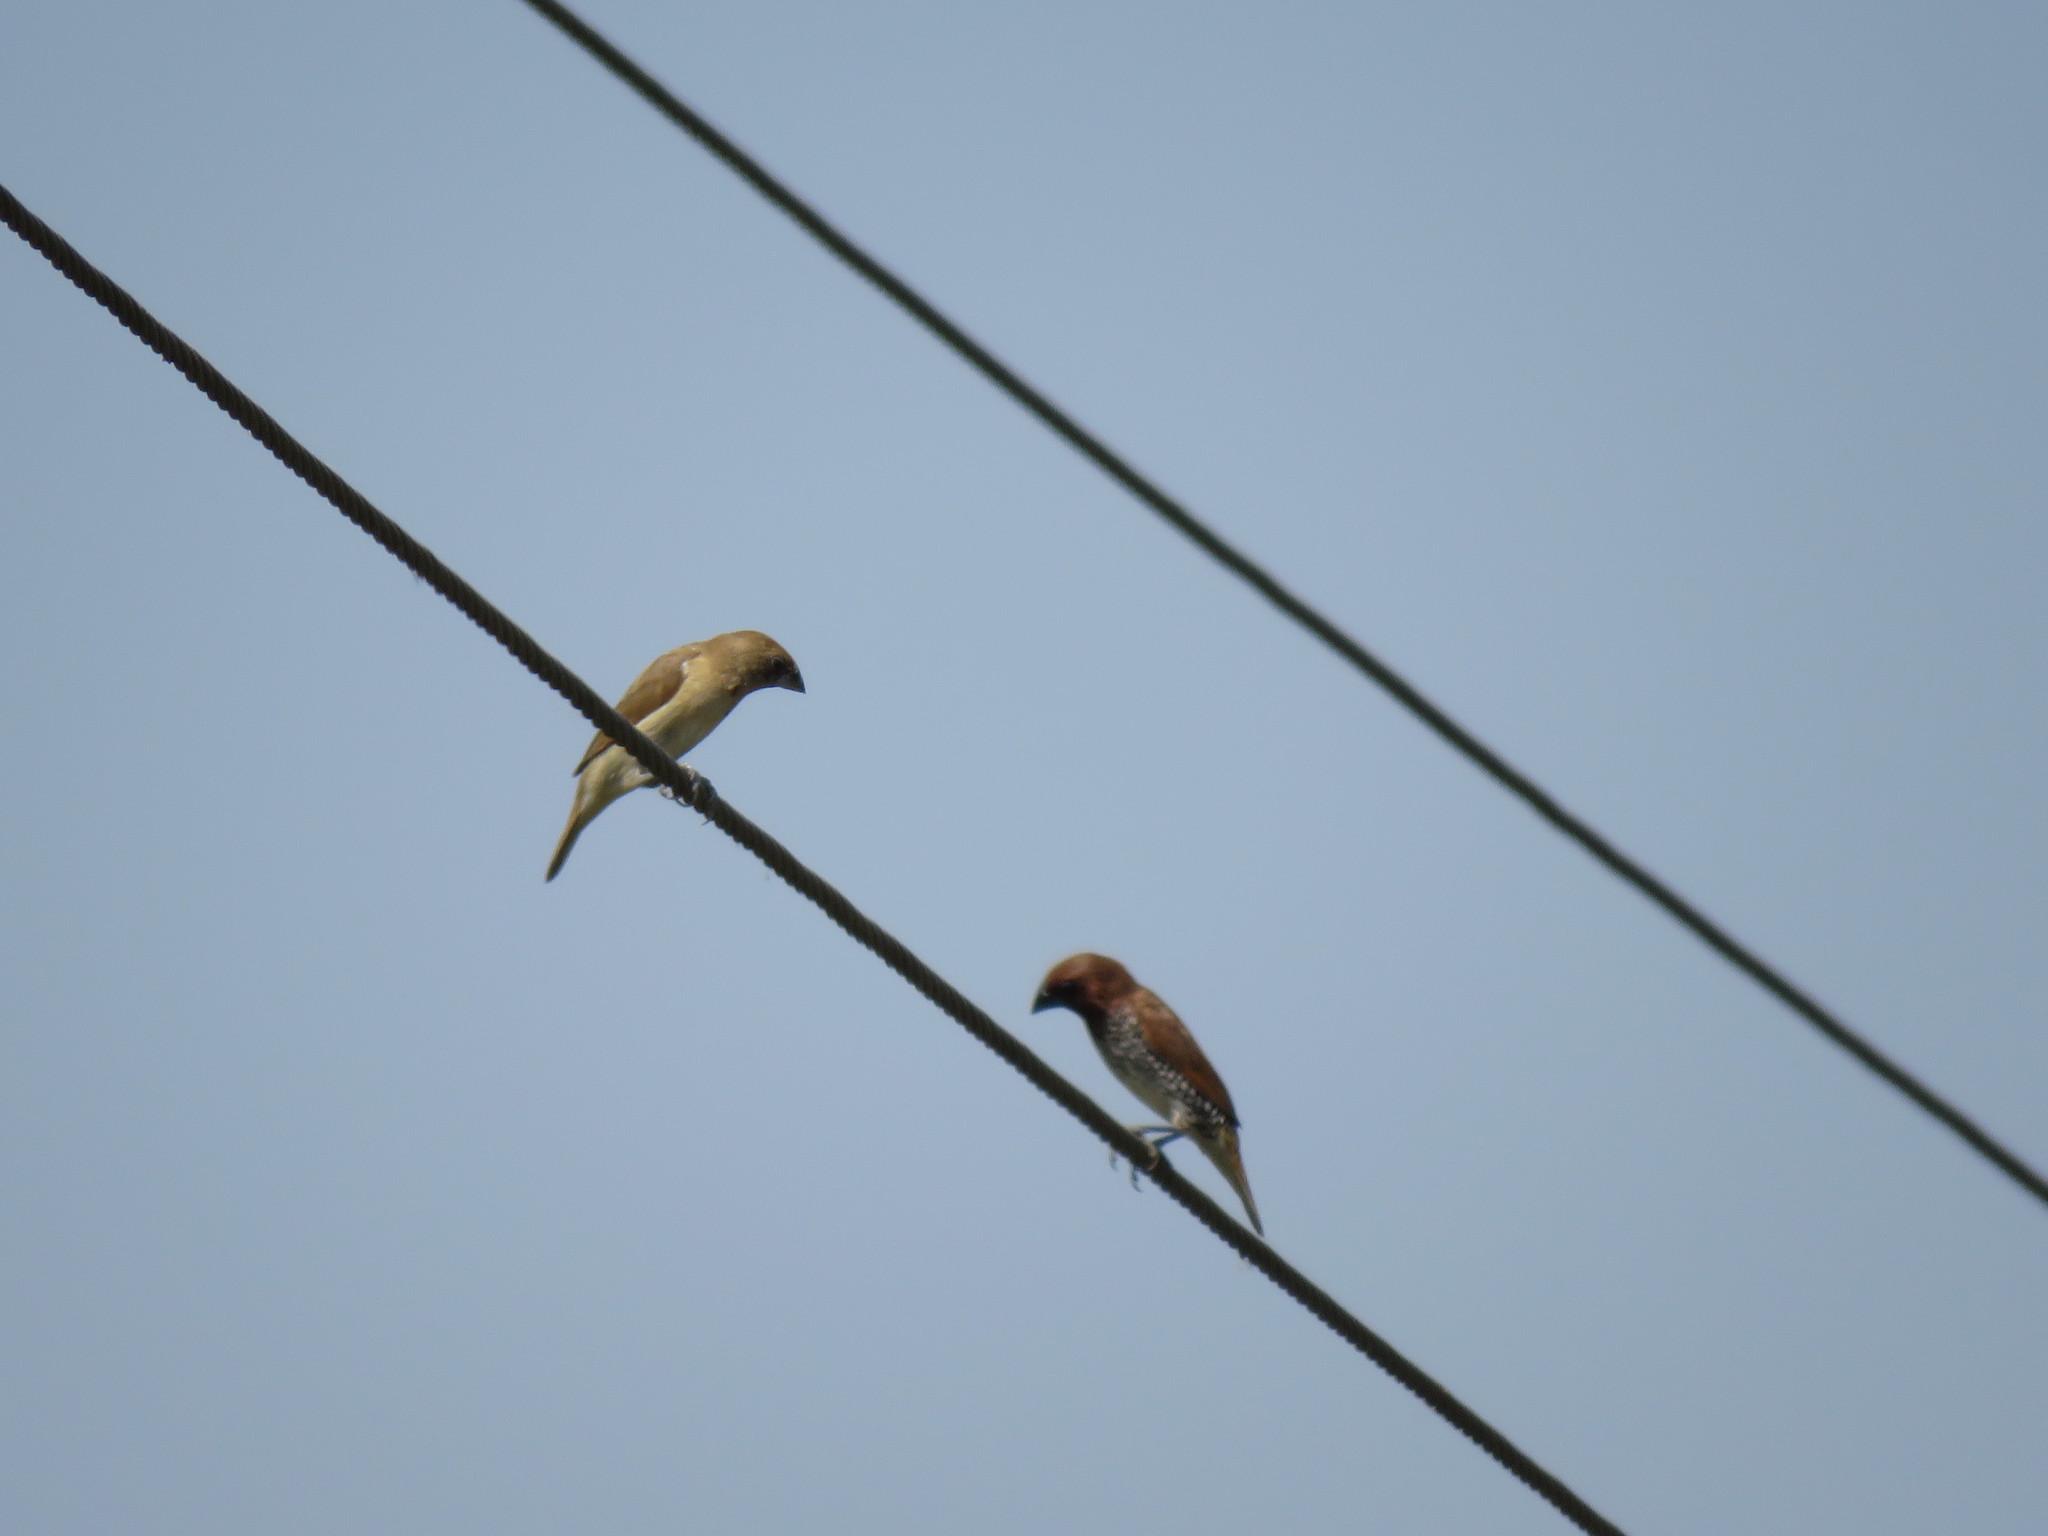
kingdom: Animalia
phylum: Chordata
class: Aves
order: Passeriformes
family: Estrildidae
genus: Lonchura
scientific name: Lonchura punctulata
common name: Scaly-breasted munia
